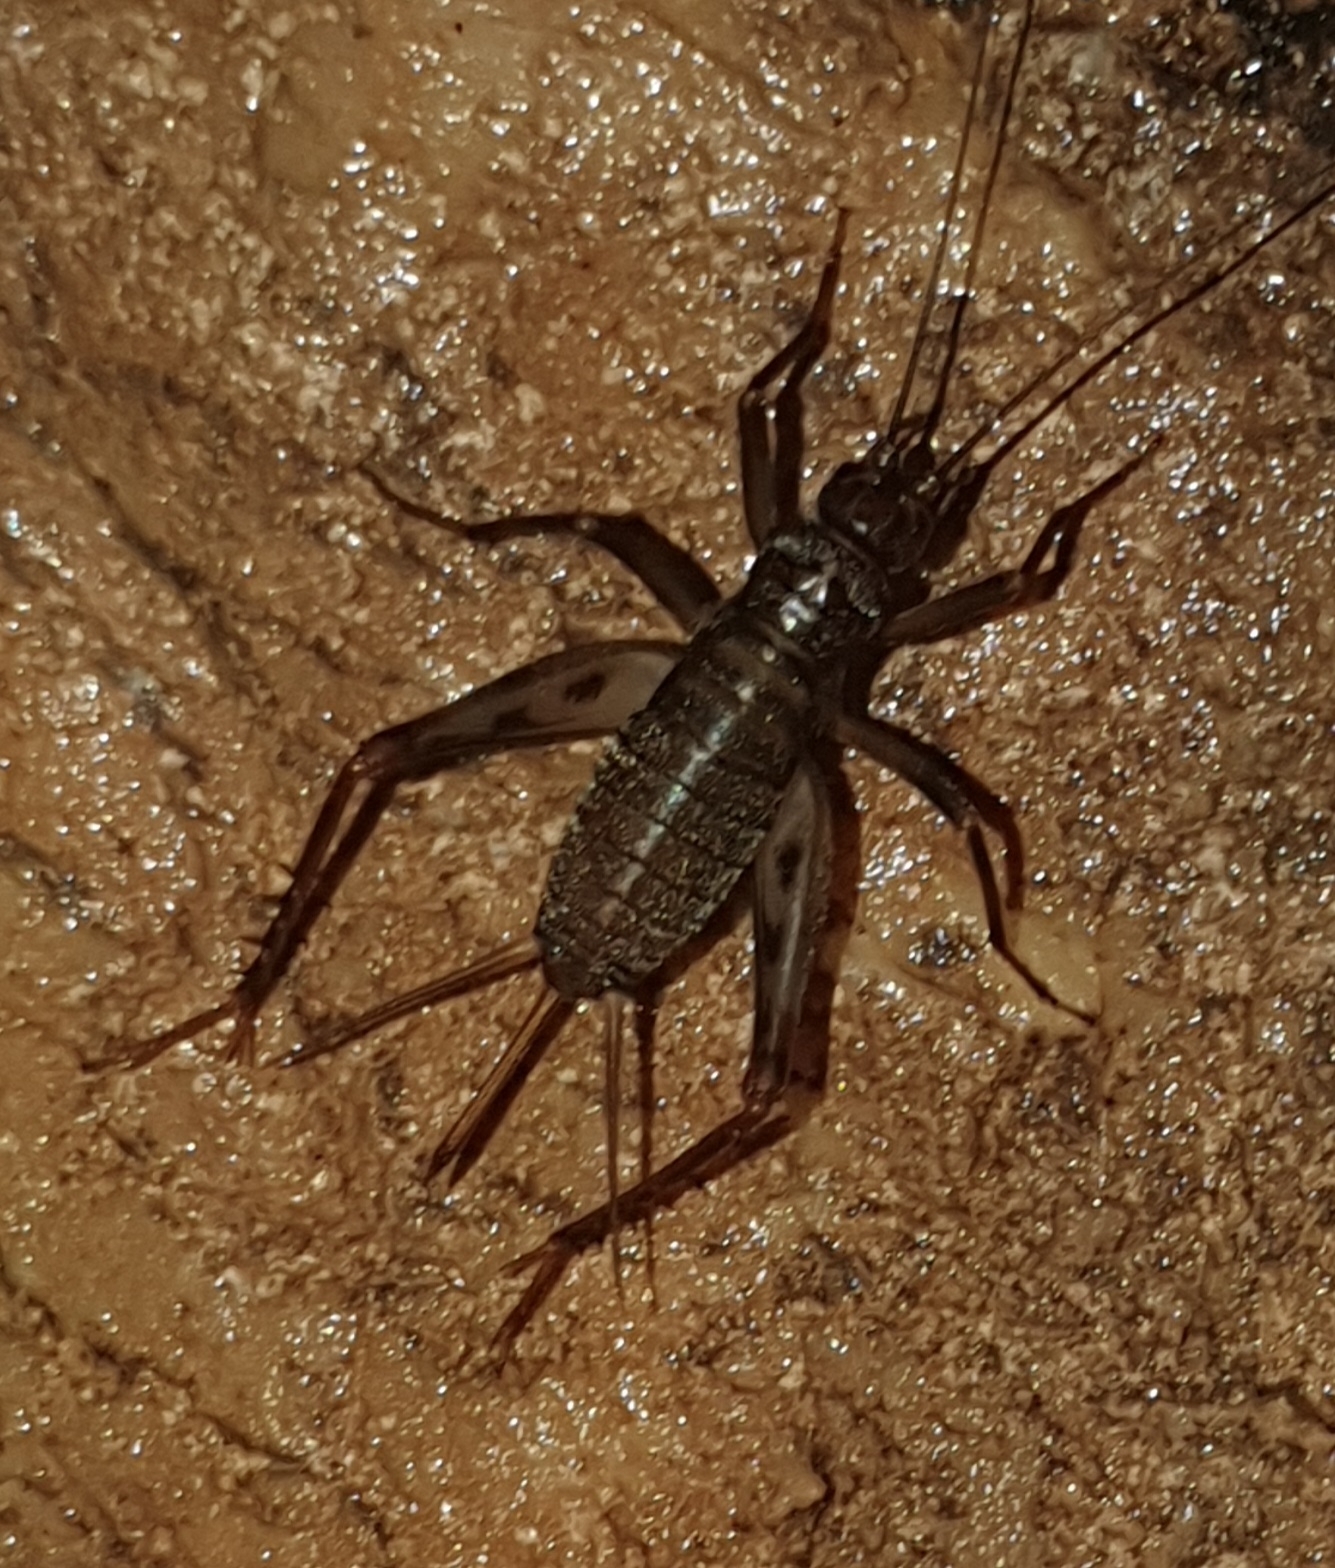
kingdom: Animalia
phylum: Arthropoda
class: Insecta
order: Orthoptera
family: Gryllidae
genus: Gryllomorpha
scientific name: Gryllomorpha dalmatina
